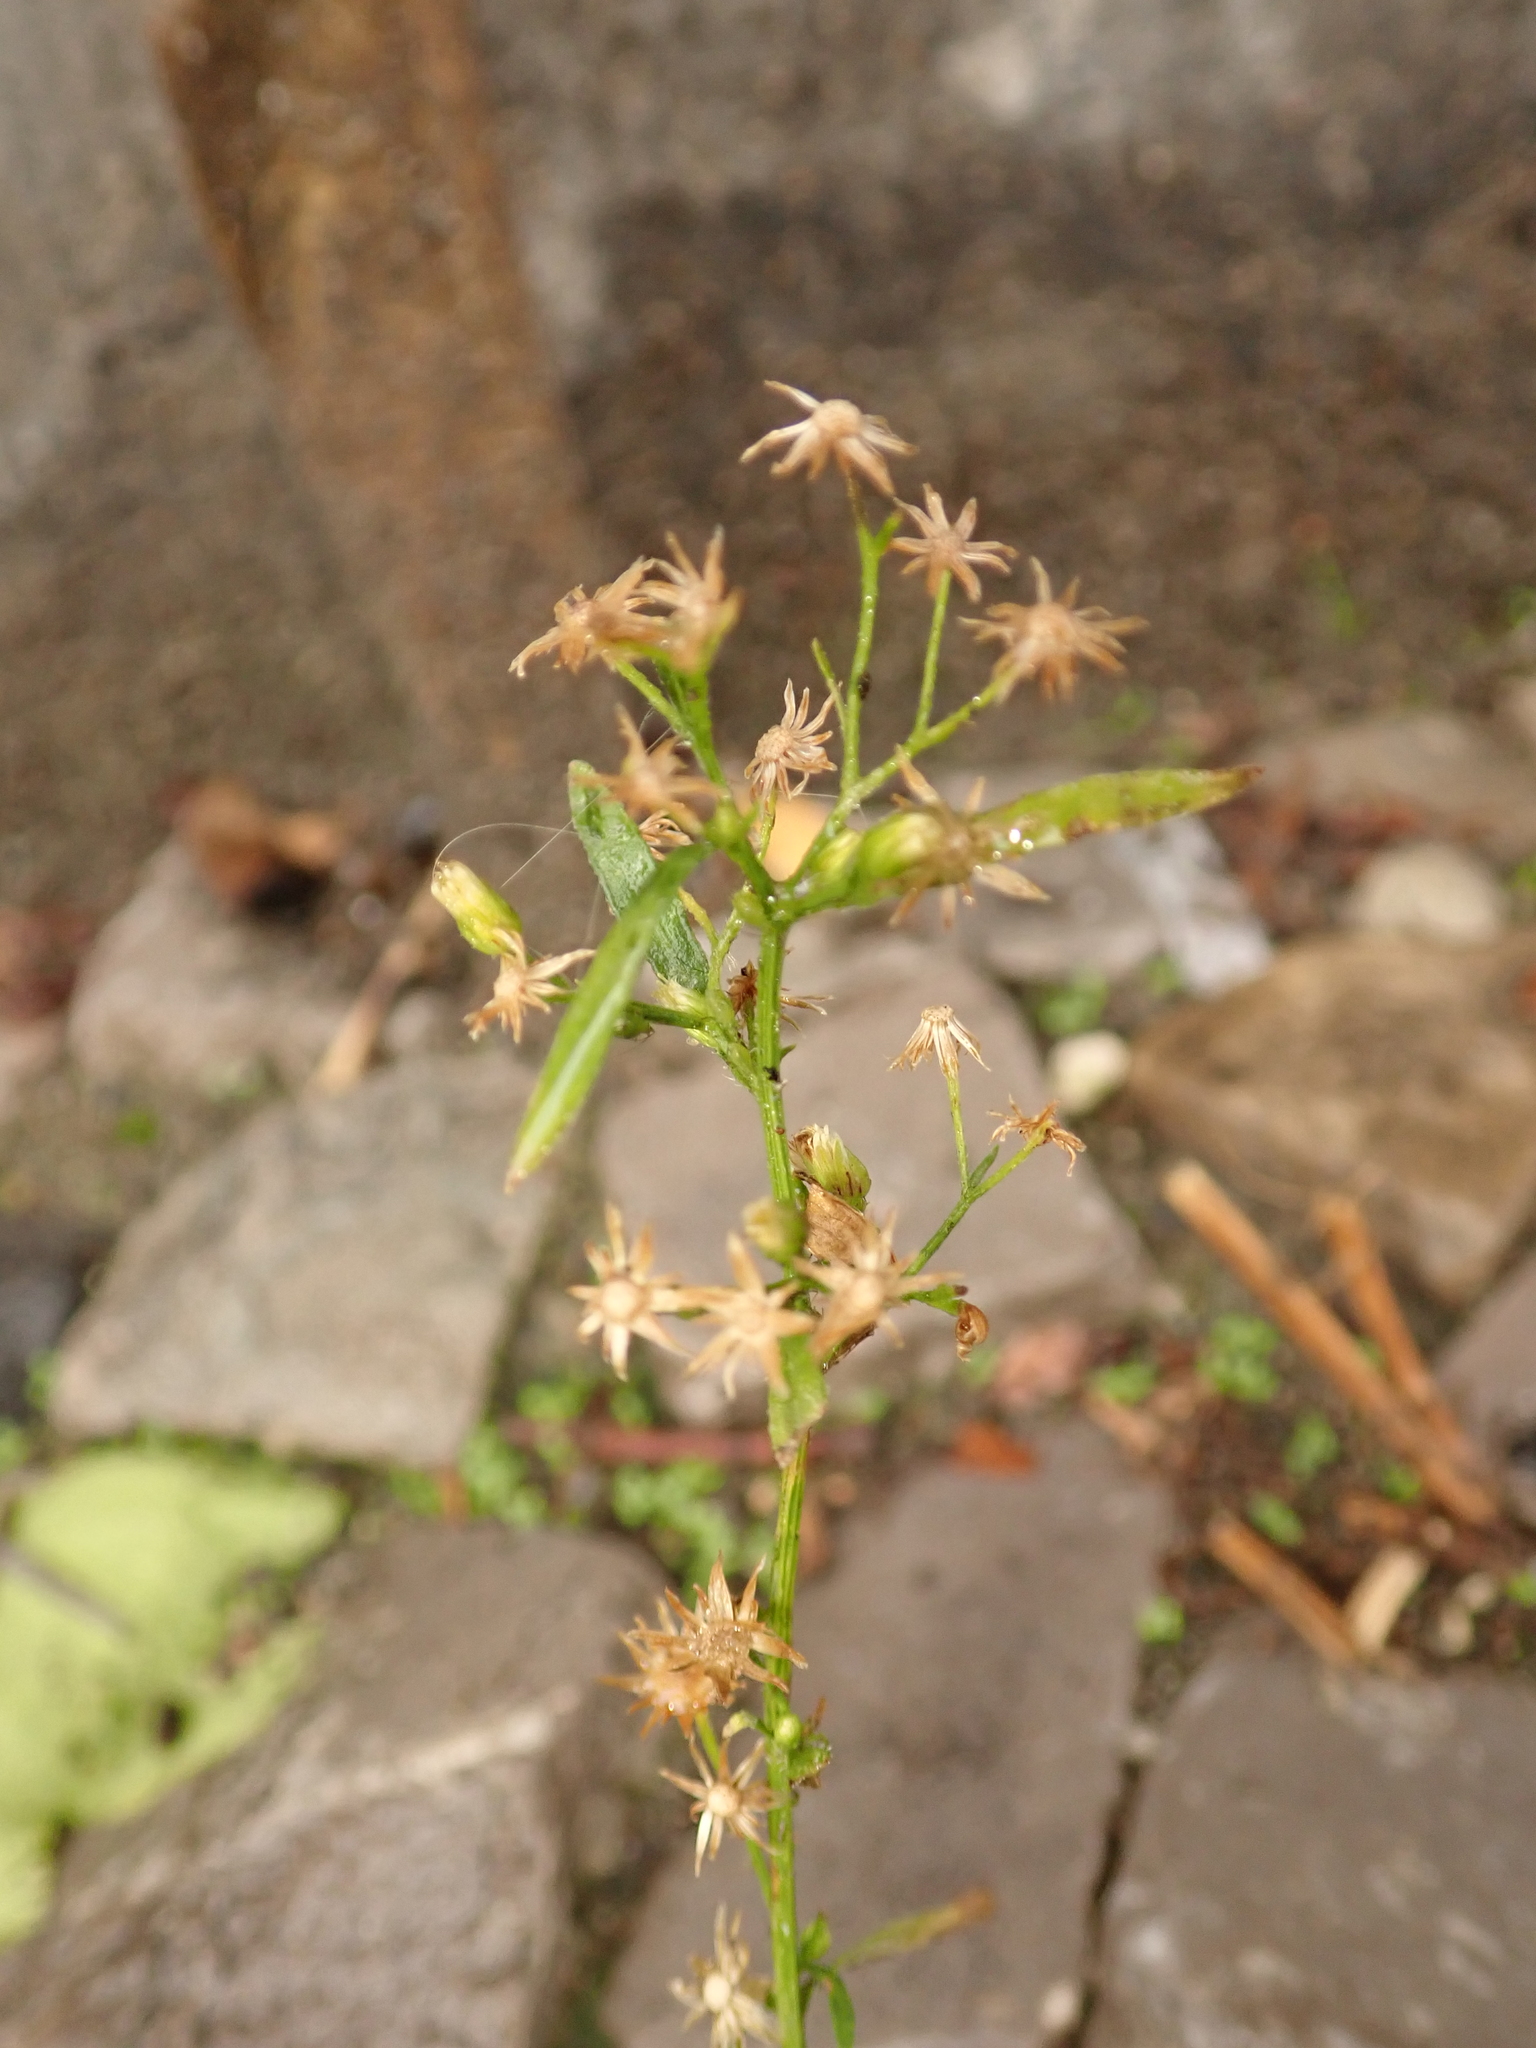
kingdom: Plantae
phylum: Tracheophyta
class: Magnoliopsida
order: Asterales
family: Asteraceae
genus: Erigeron
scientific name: Erigeron canadensis
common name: Canadian fleabane
